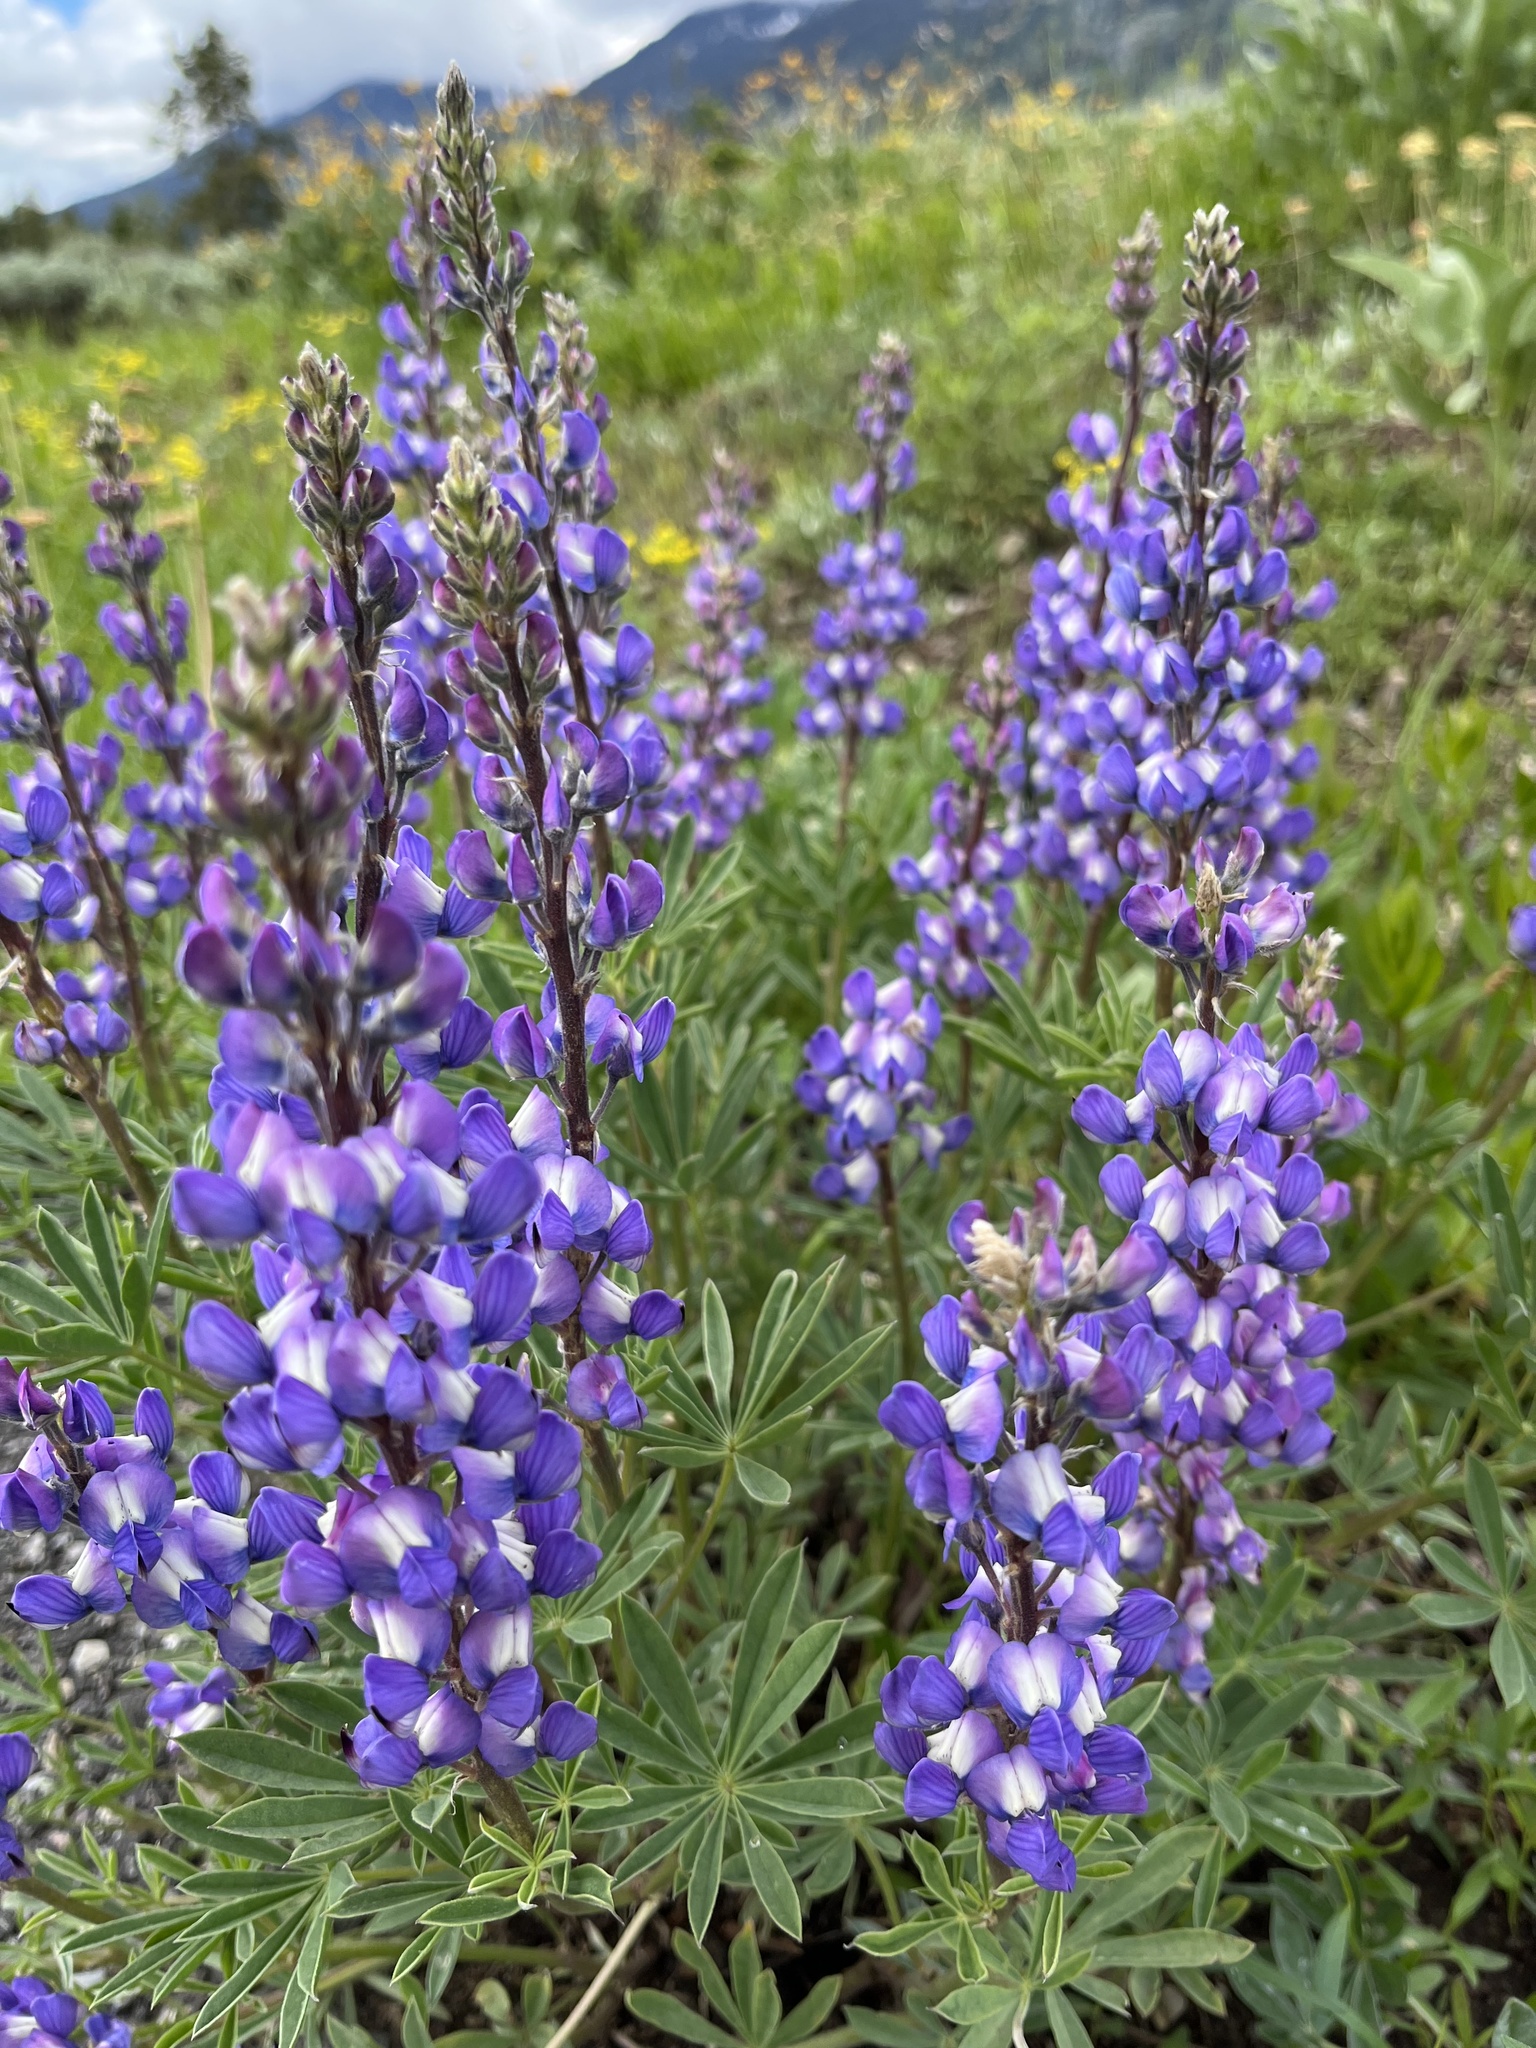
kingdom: Plantae
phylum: Tracheophyta
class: Magnoliopsida
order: Fabales
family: Fabaceae
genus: Lupinus
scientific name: Lupinus wyethii
